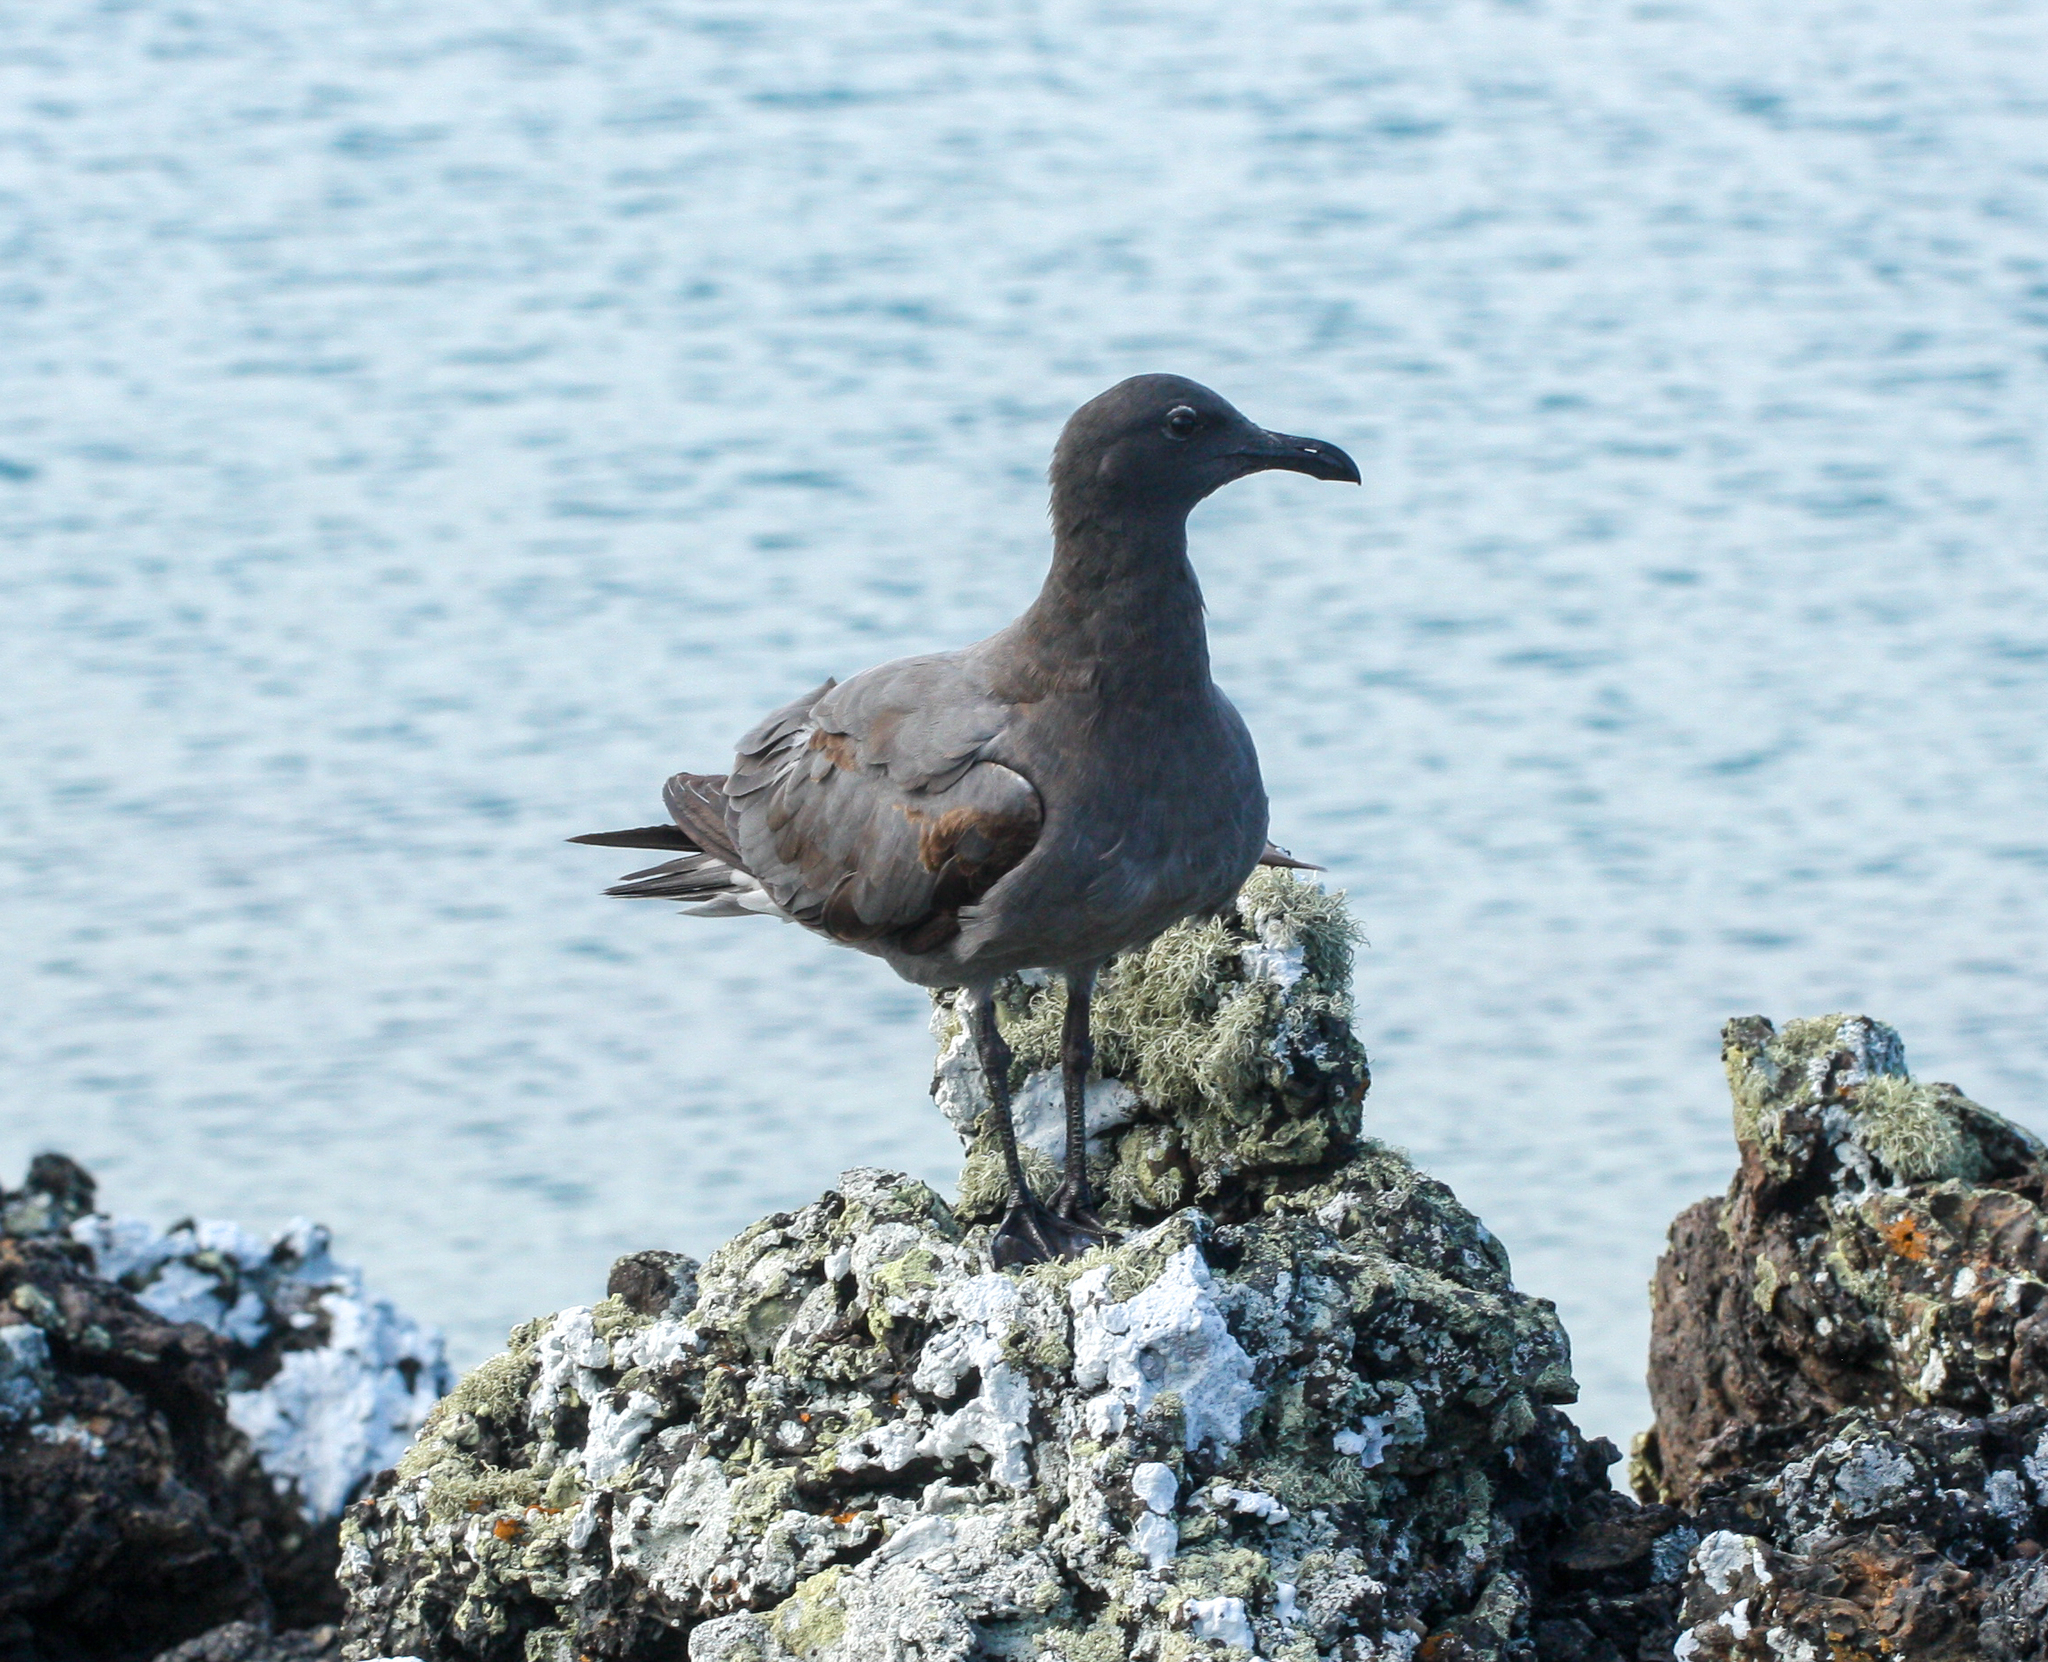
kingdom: Animalia
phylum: Chordata
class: Aves
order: Charadriiformes
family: Laridae
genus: Leucophaeus
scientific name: Leucophaeus fuliginosus
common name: Lava gull
